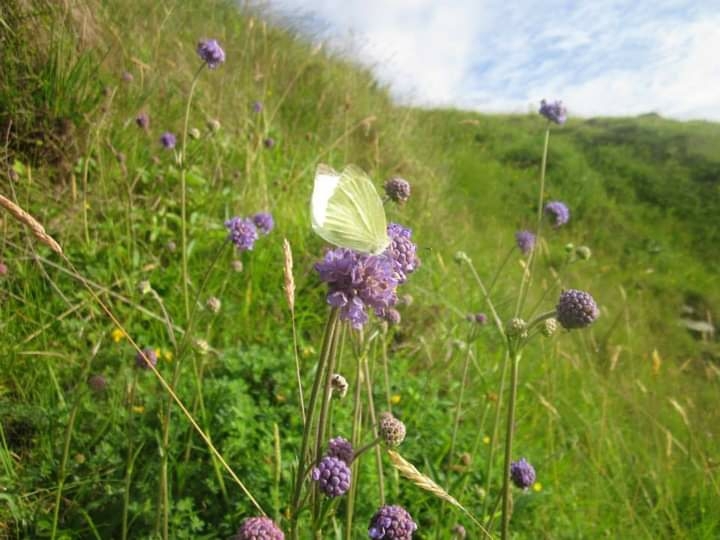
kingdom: Animalia
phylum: Arthropoda
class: Insecta
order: Lepidoptera
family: Pieridae
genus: Pieris
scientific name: Pieris rapae
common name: Small white
